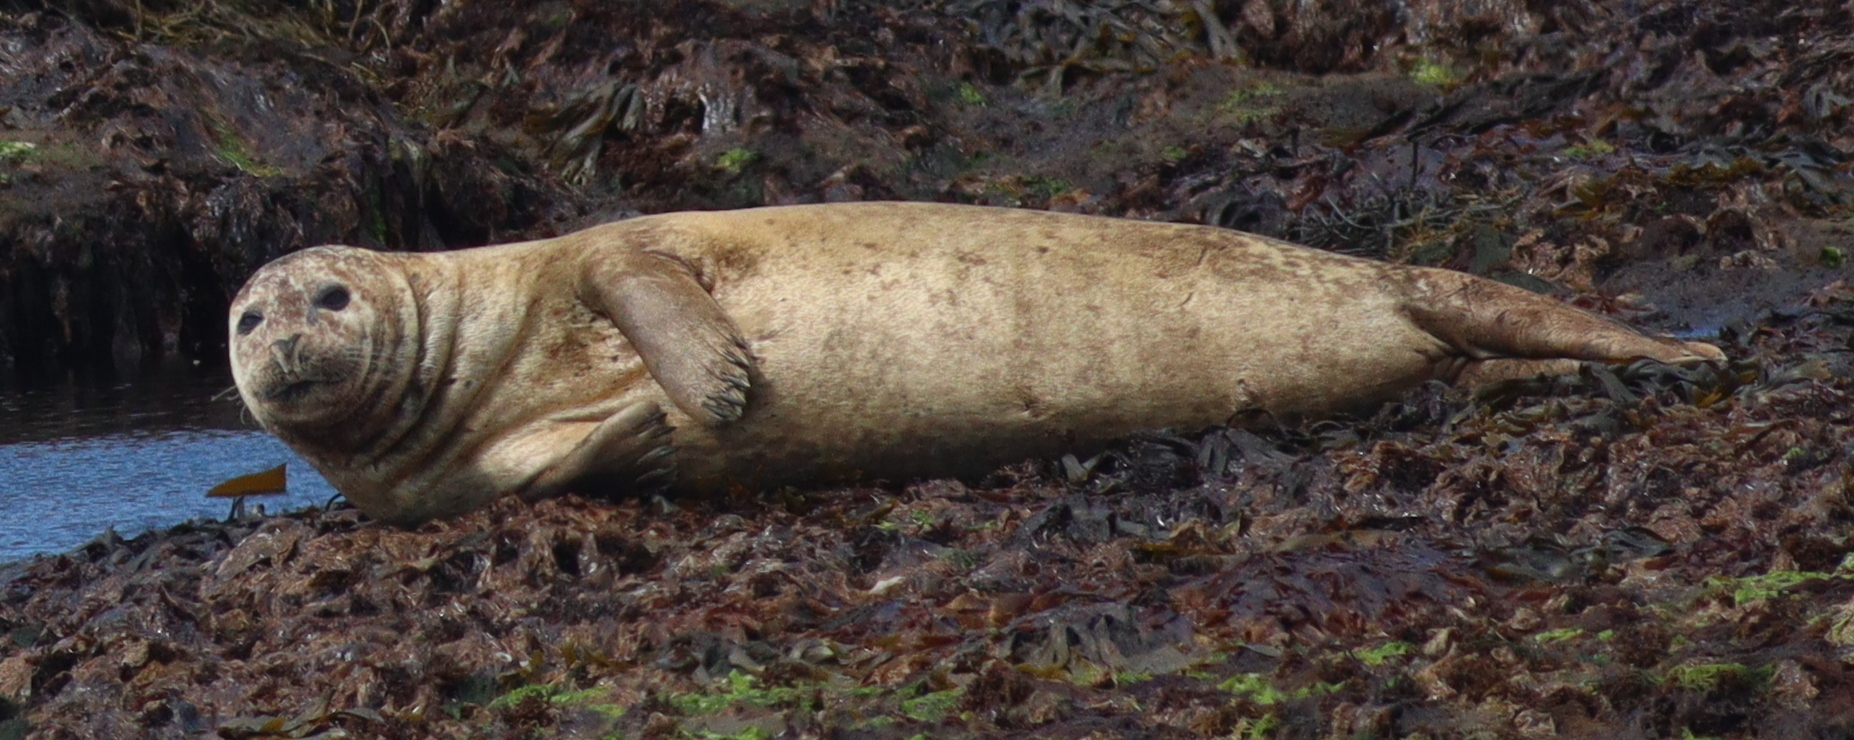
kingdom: Animalia
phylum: Chordata
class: Mammalia
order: Carnivora
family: Phocidae
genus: Phoca
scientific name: Phoca vitulina
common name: Harbor seal
